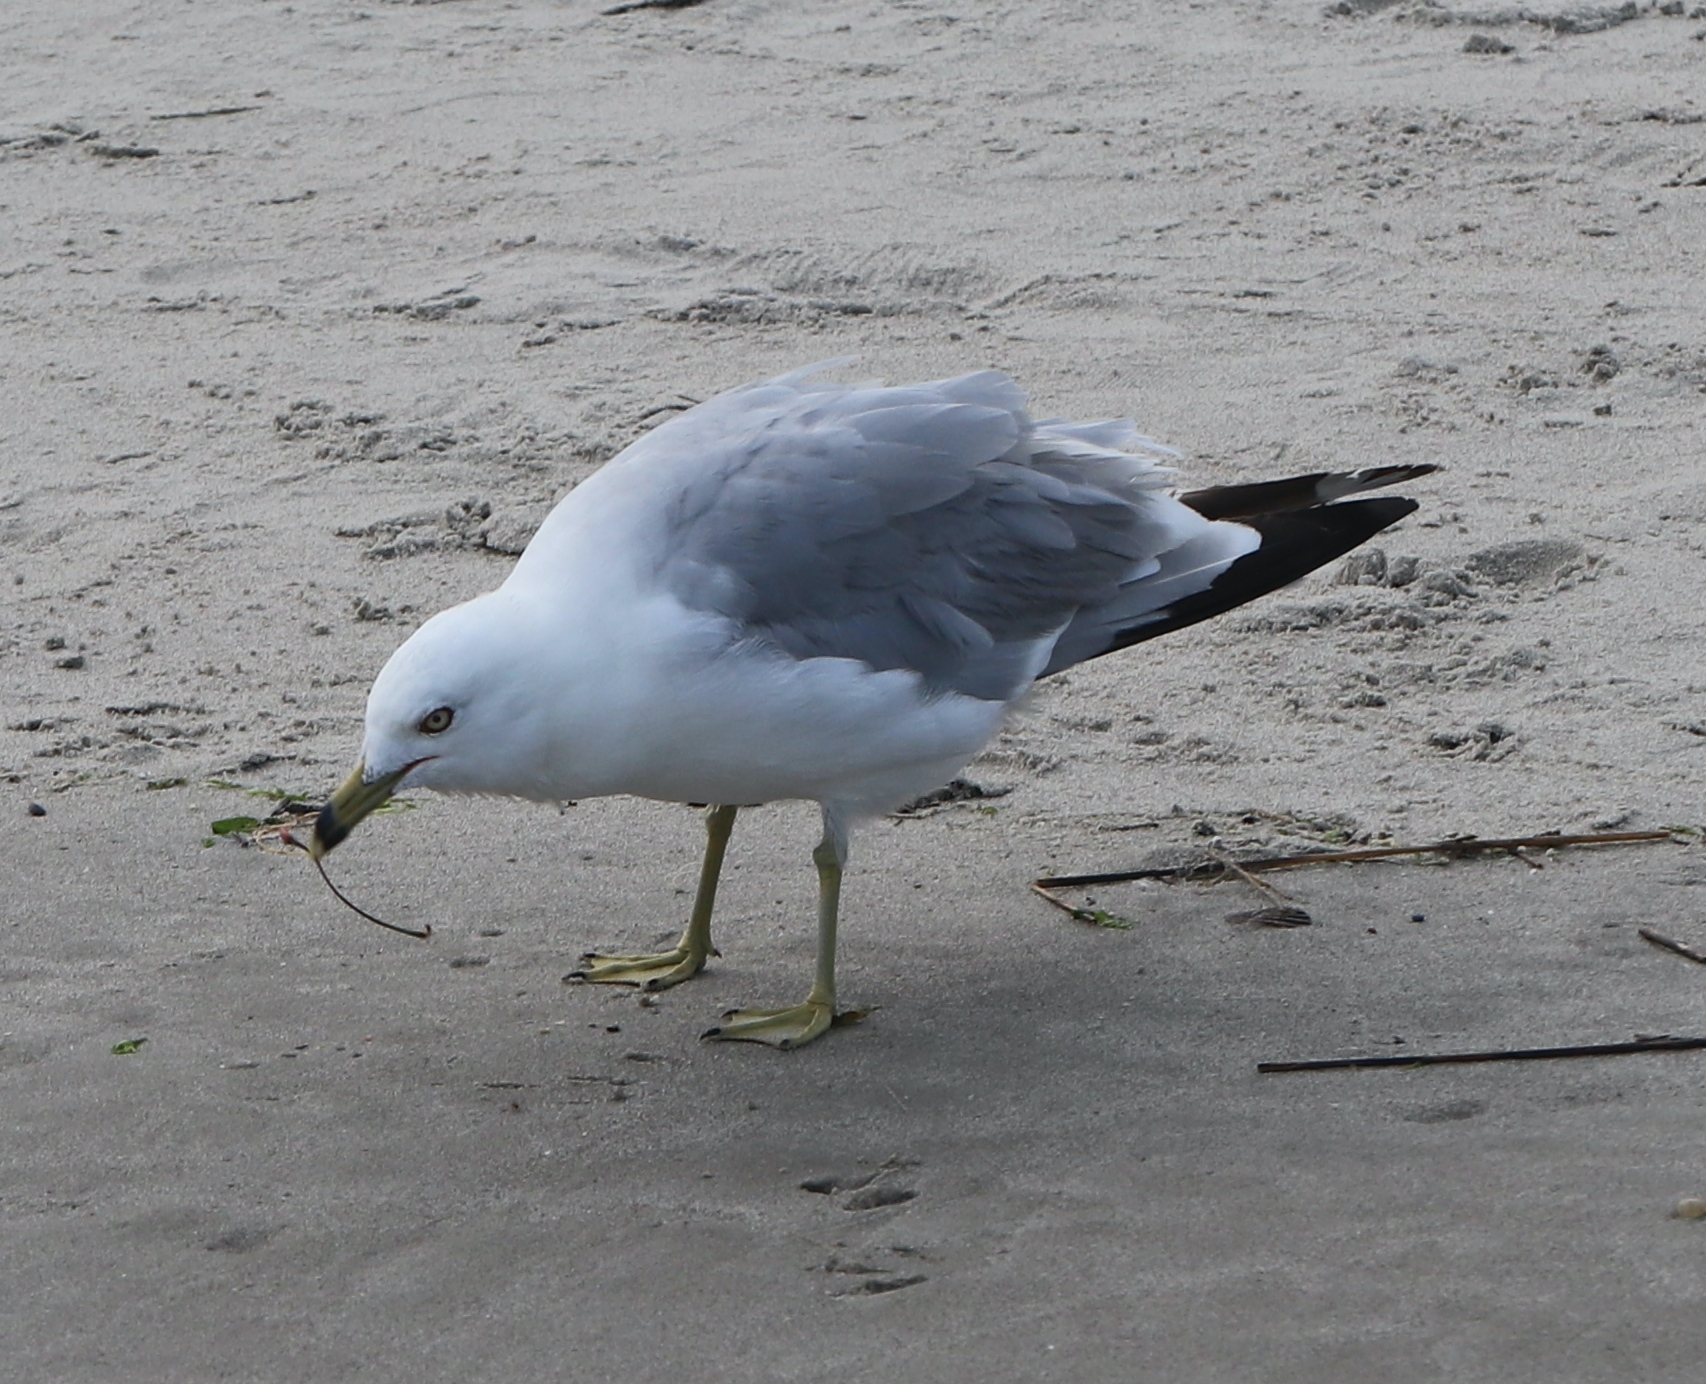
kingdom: Animalia
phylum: Chordata
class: Aves
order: Charadriiformes
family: Laridae
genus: Larus
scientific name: Larus delawarensis
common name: Ring-billed gull
